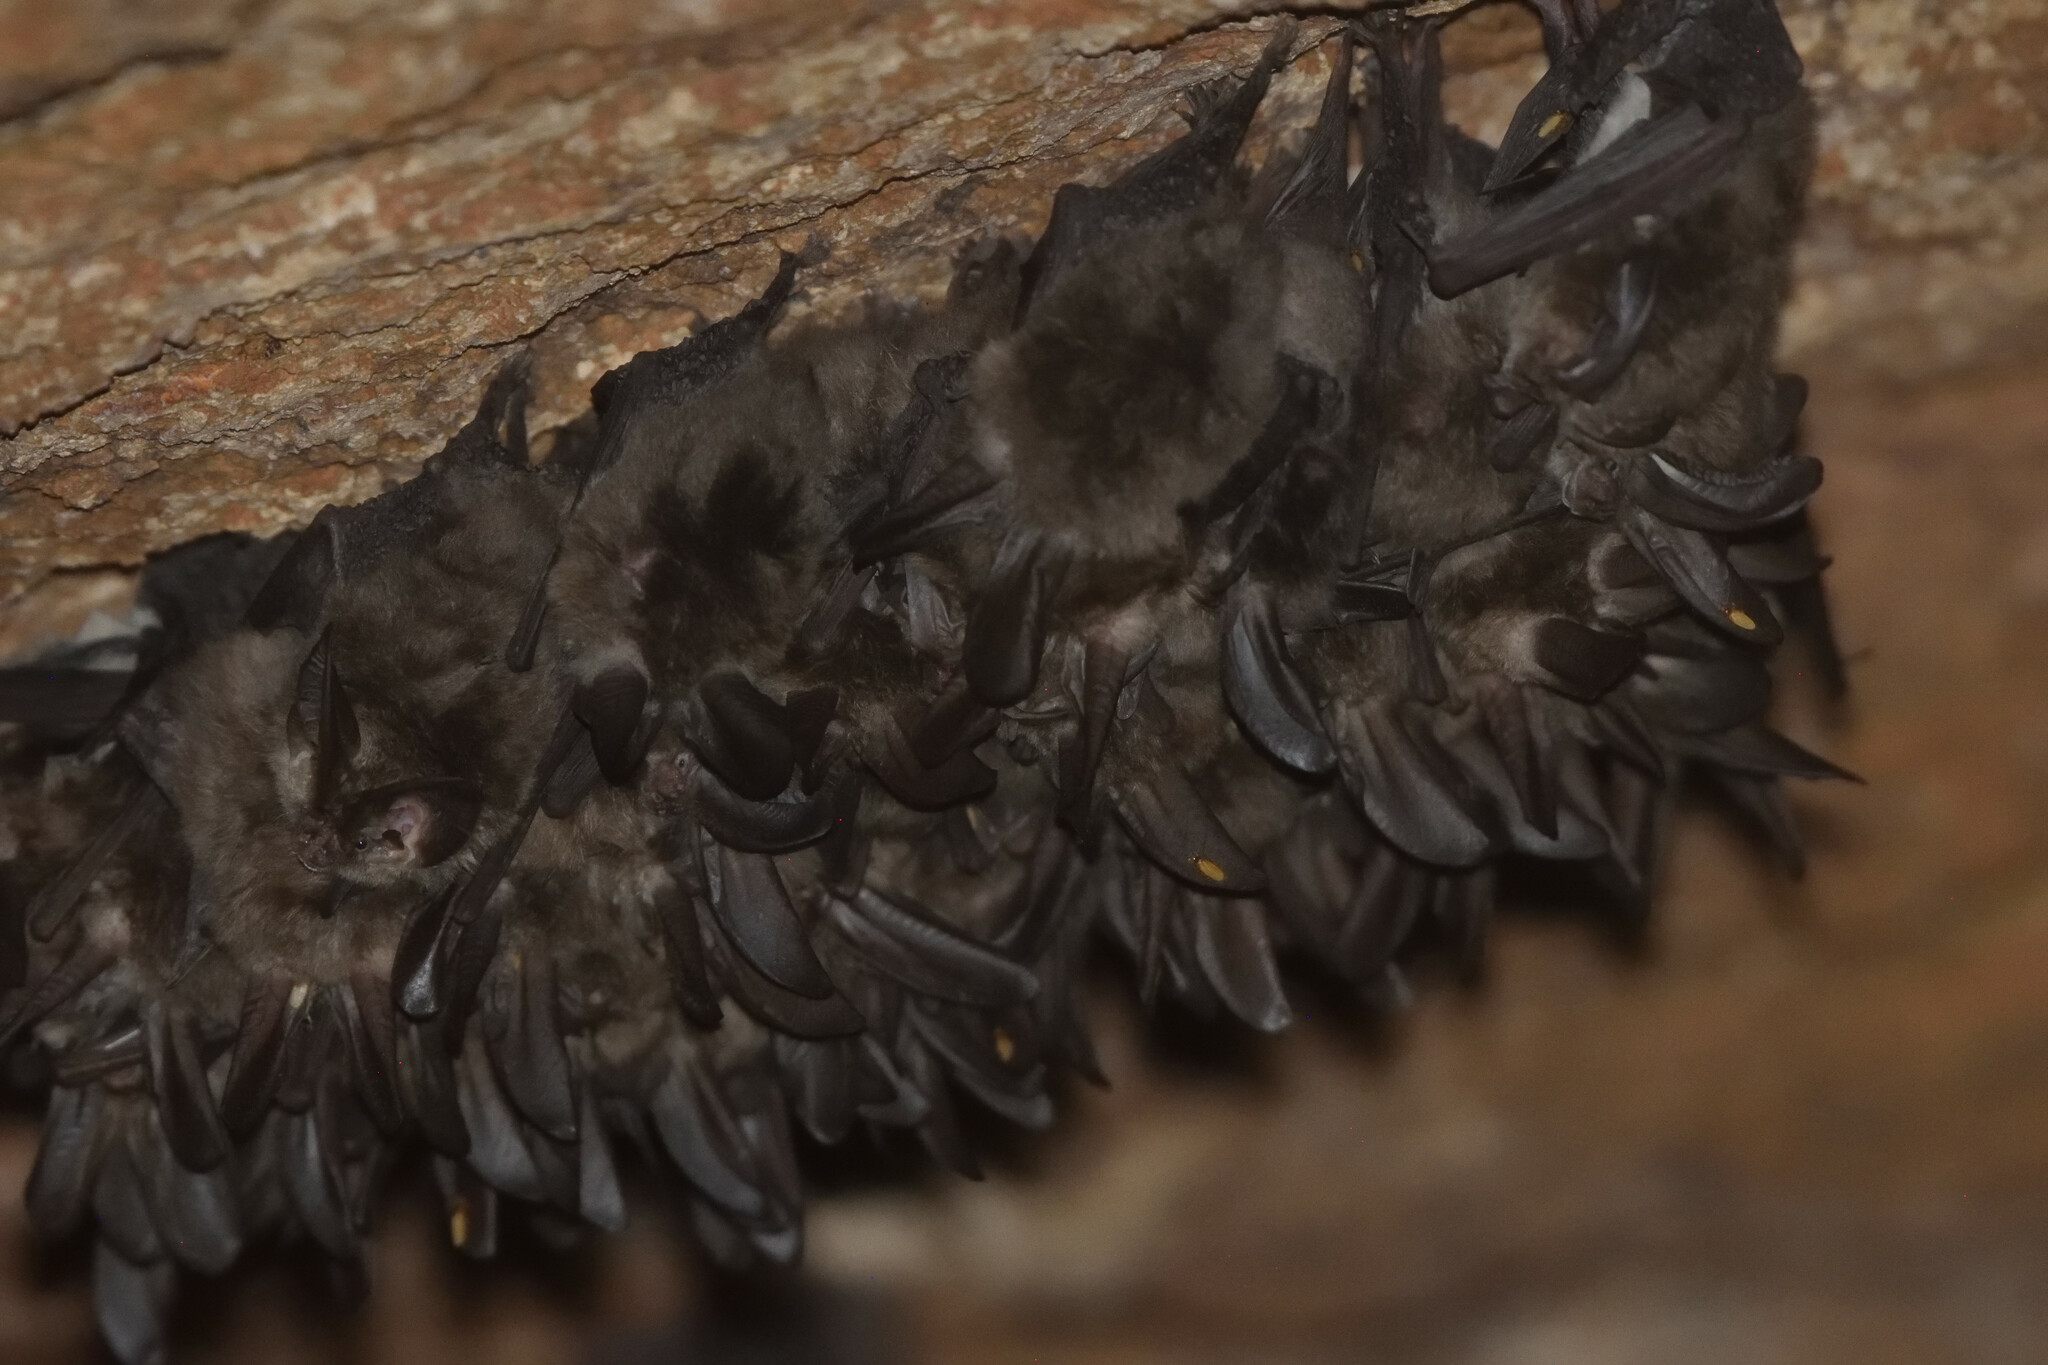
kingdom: Animalia
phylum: Chordata
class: Mammalia
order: Chiroptera
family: Vespertilionidae
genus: Corynorhinus
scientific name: Corynorhinus mexicanus
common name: Mexican big-eared bat
